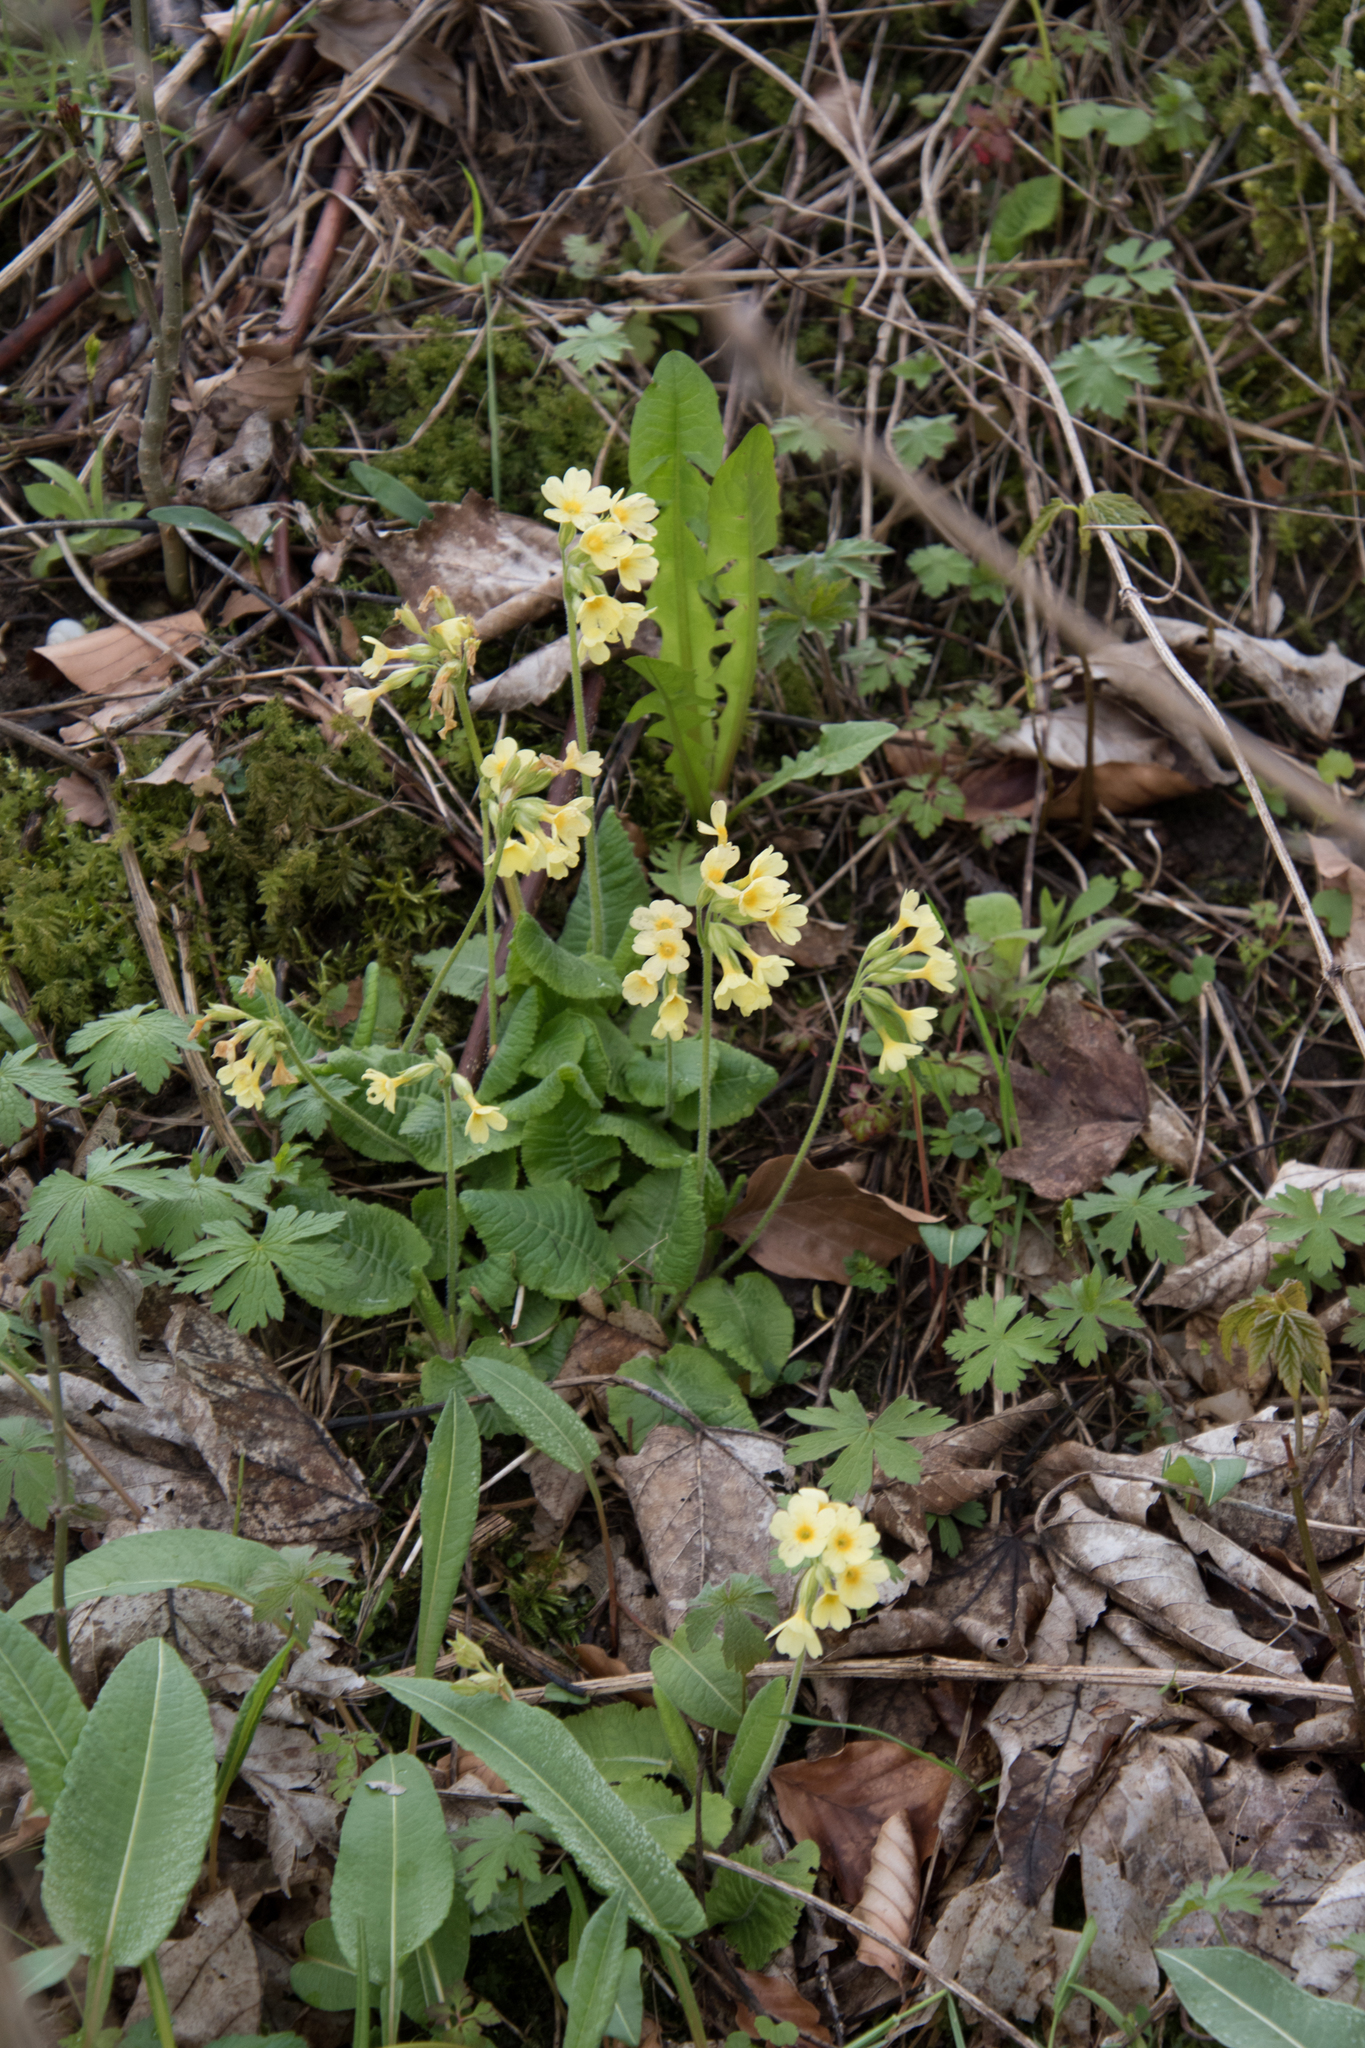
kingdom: Plantae
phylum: Tracheophyta
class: Magnoliopsida
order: Ericales
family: Primulaceae
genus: Primula
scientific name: Primula elatior
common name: Oxlip
